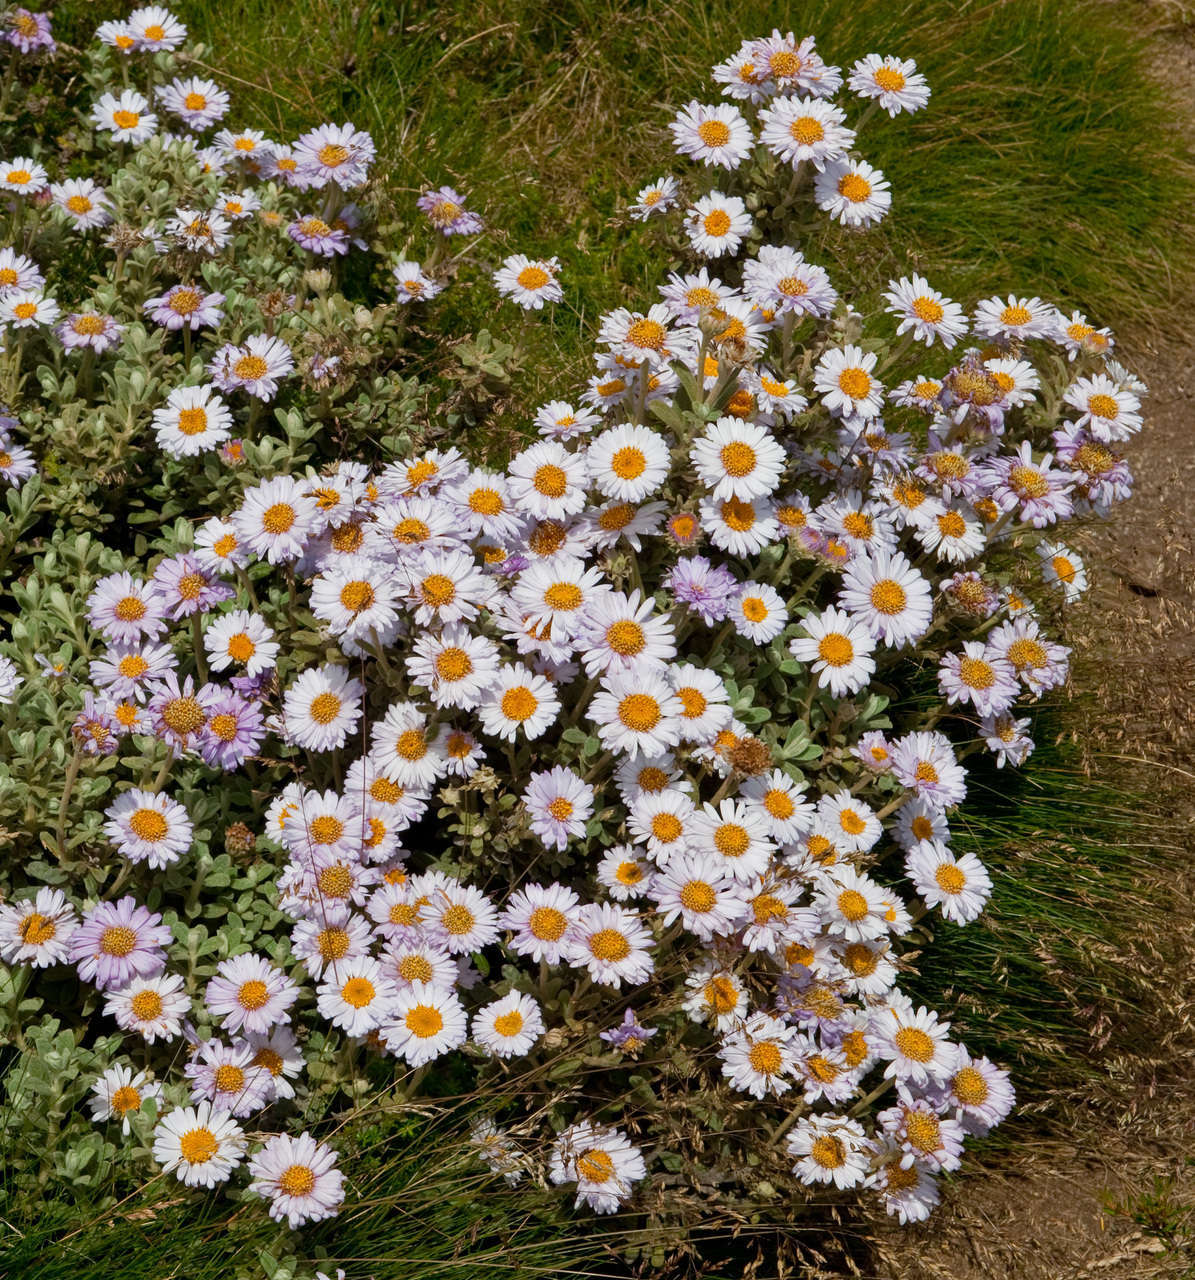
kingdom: Plantae
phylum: Tracheophyta
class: Magnoliopsida
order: Asterales
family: Asteraceae
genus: Olearia
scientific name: Olearia frostii
